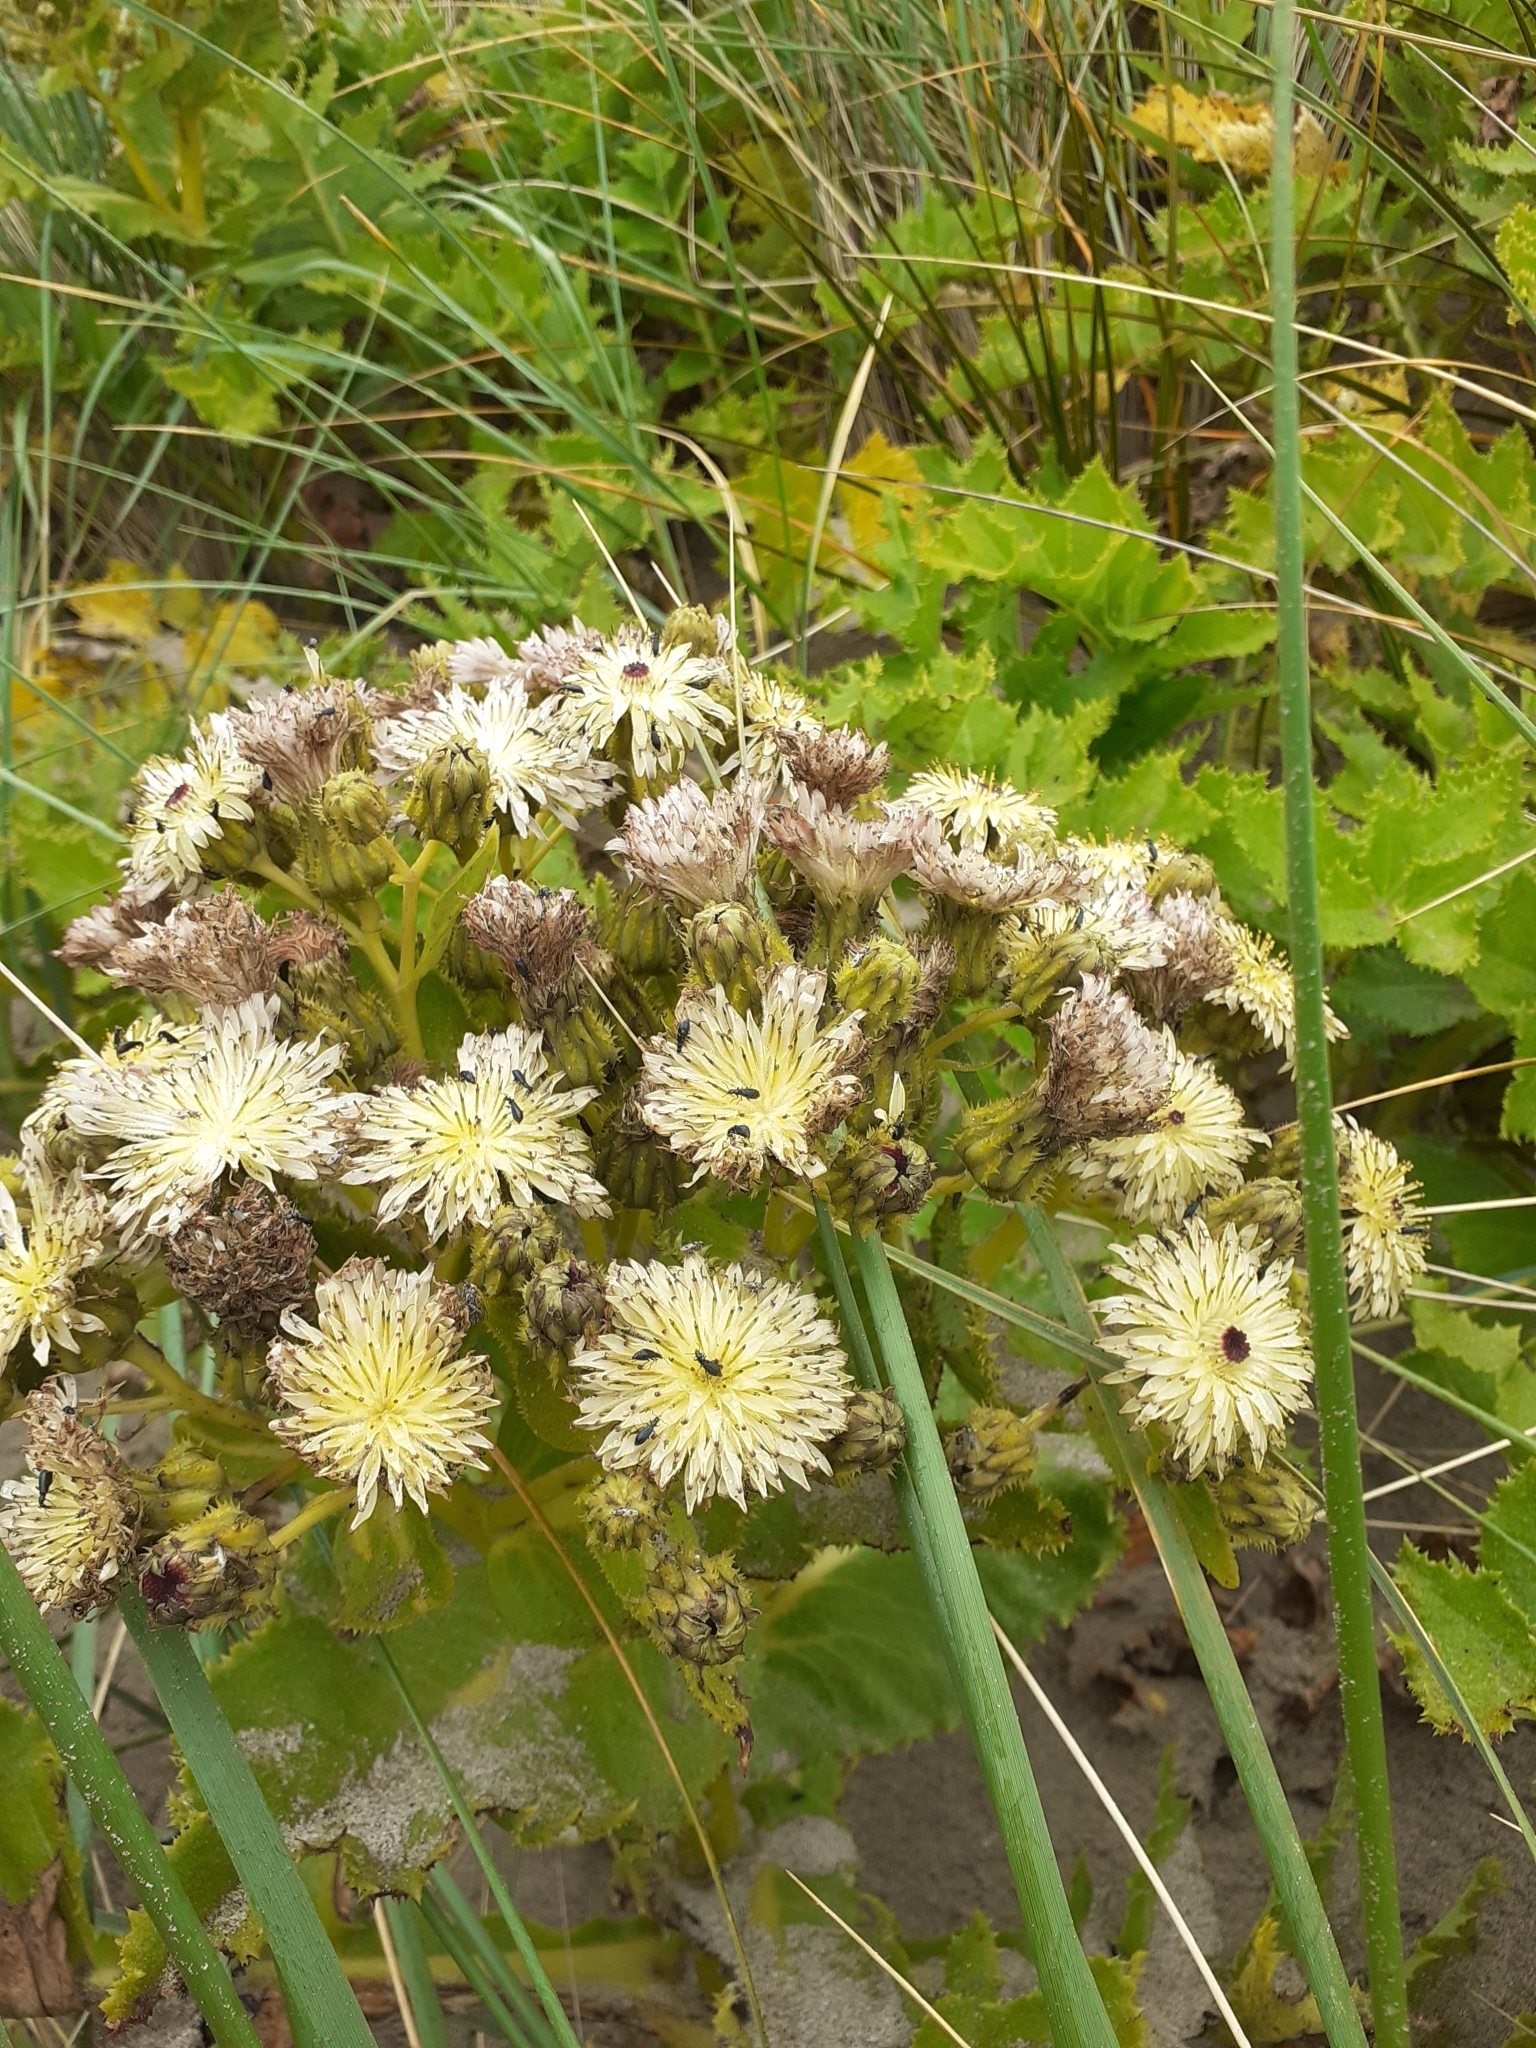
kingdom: Plantae
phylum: Tracheophyta
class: Magnoliopsida
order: Asterales
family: Asteraceae
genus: Sonchus
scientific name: Sonchus grandifolius
